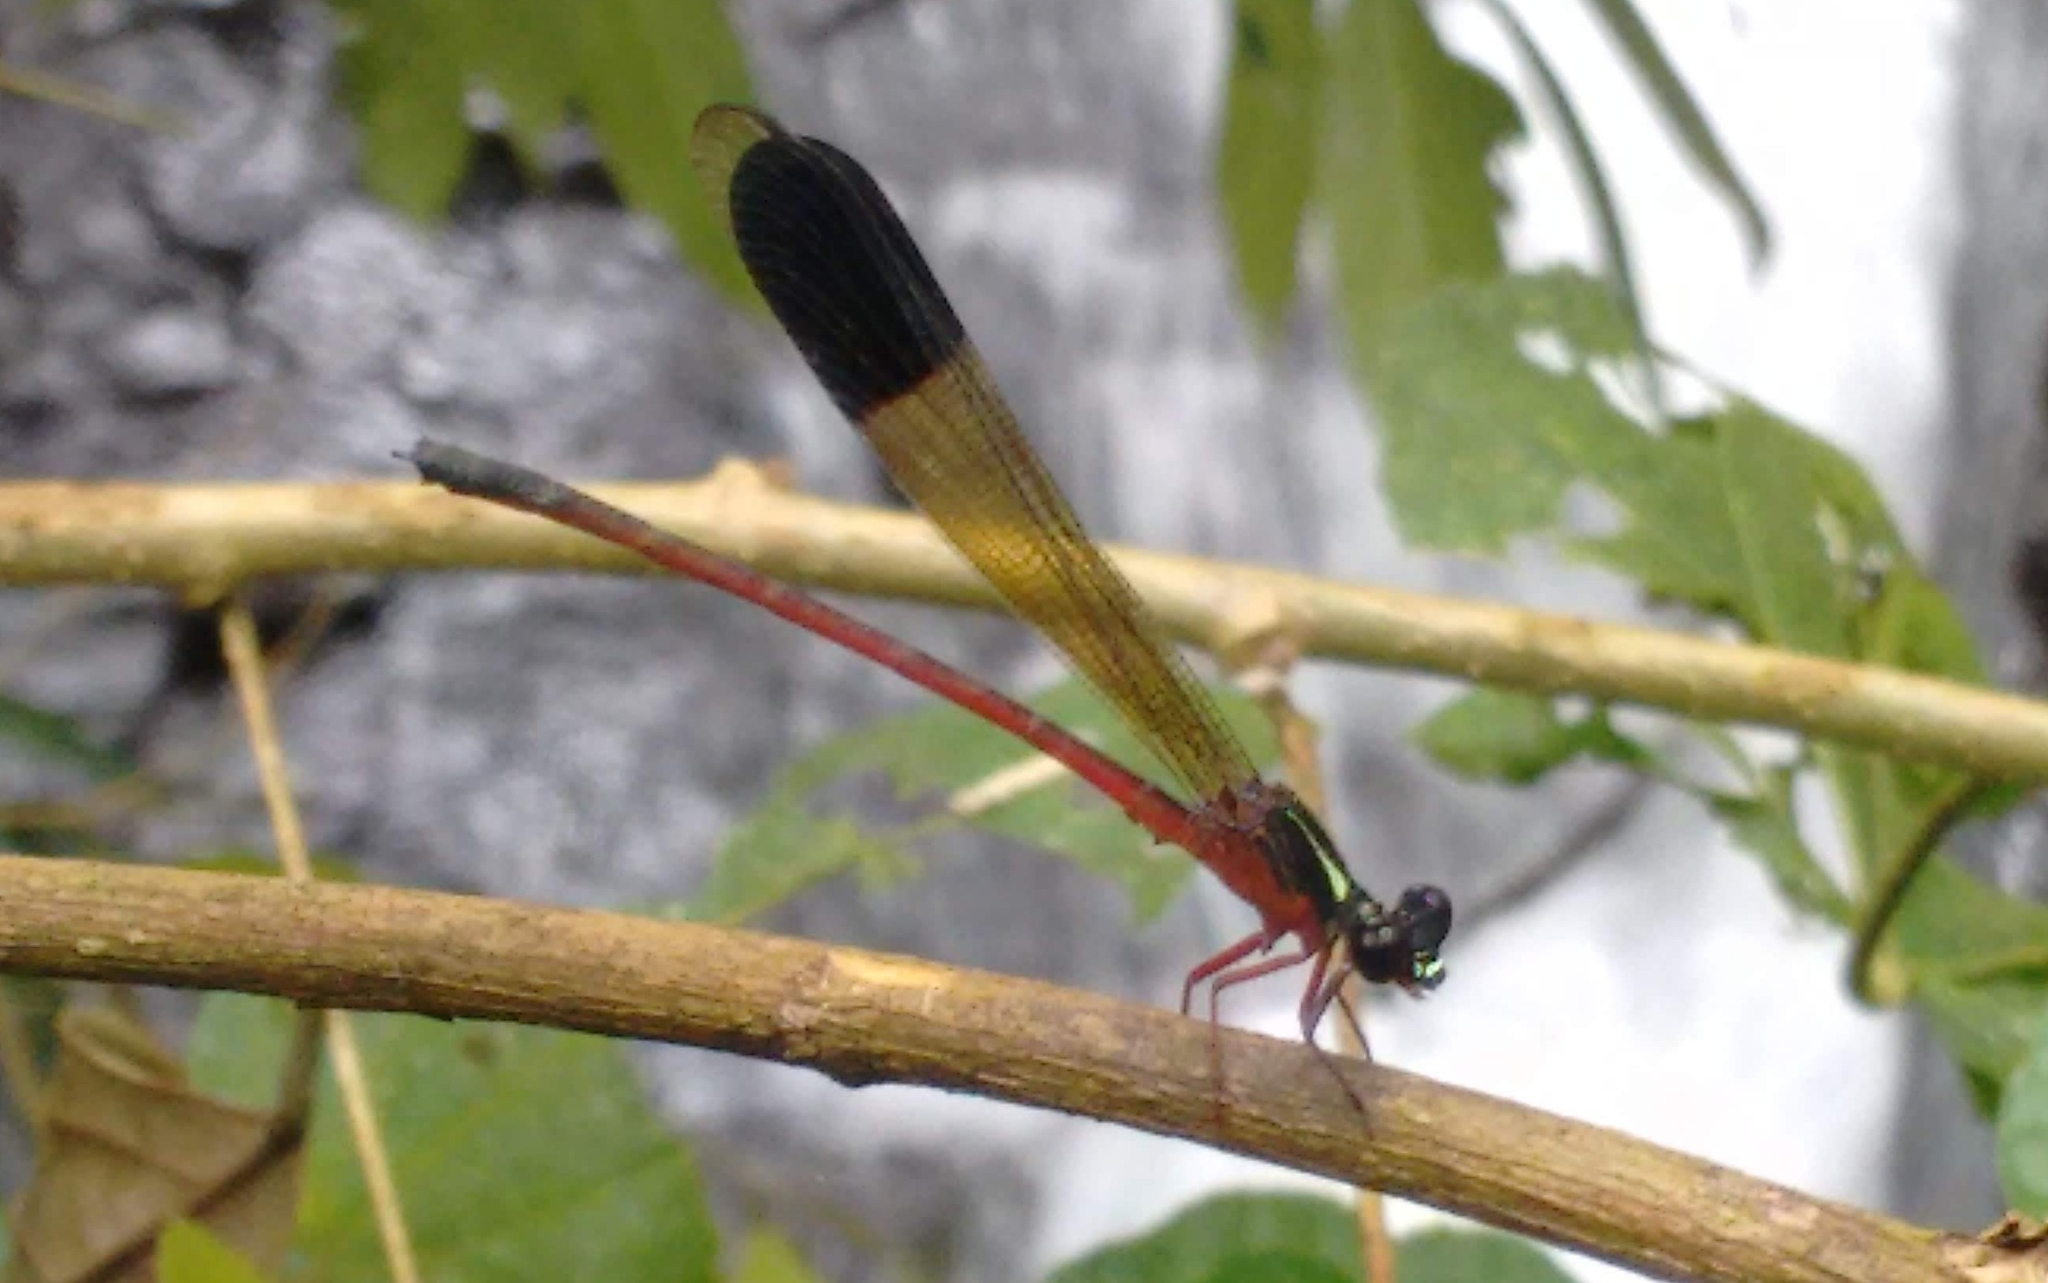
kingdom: Animalia
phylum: Arthropoda
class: Insecta
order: Odonata
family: Euphaeidae
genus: Euphaea
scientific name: Euphaea fraseri
